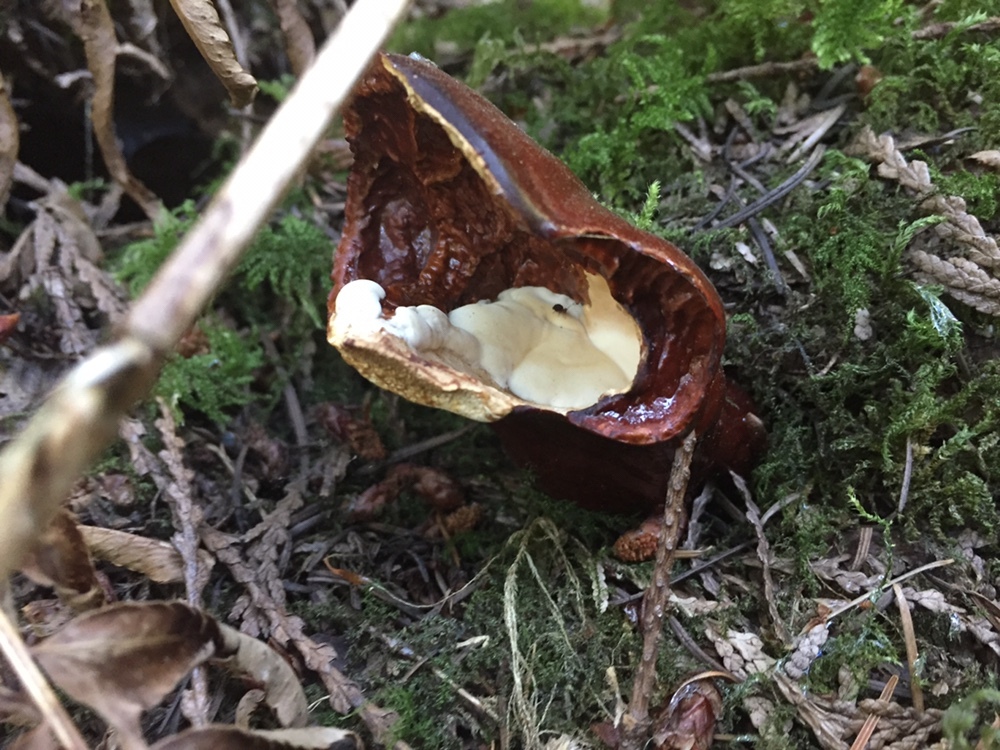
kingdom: Fungi
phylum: Basidiomycota
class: Agaricomycetes
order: Polyporales
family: Polyporaceae
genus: Ganoderma
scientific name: Ganoderma oregonense
